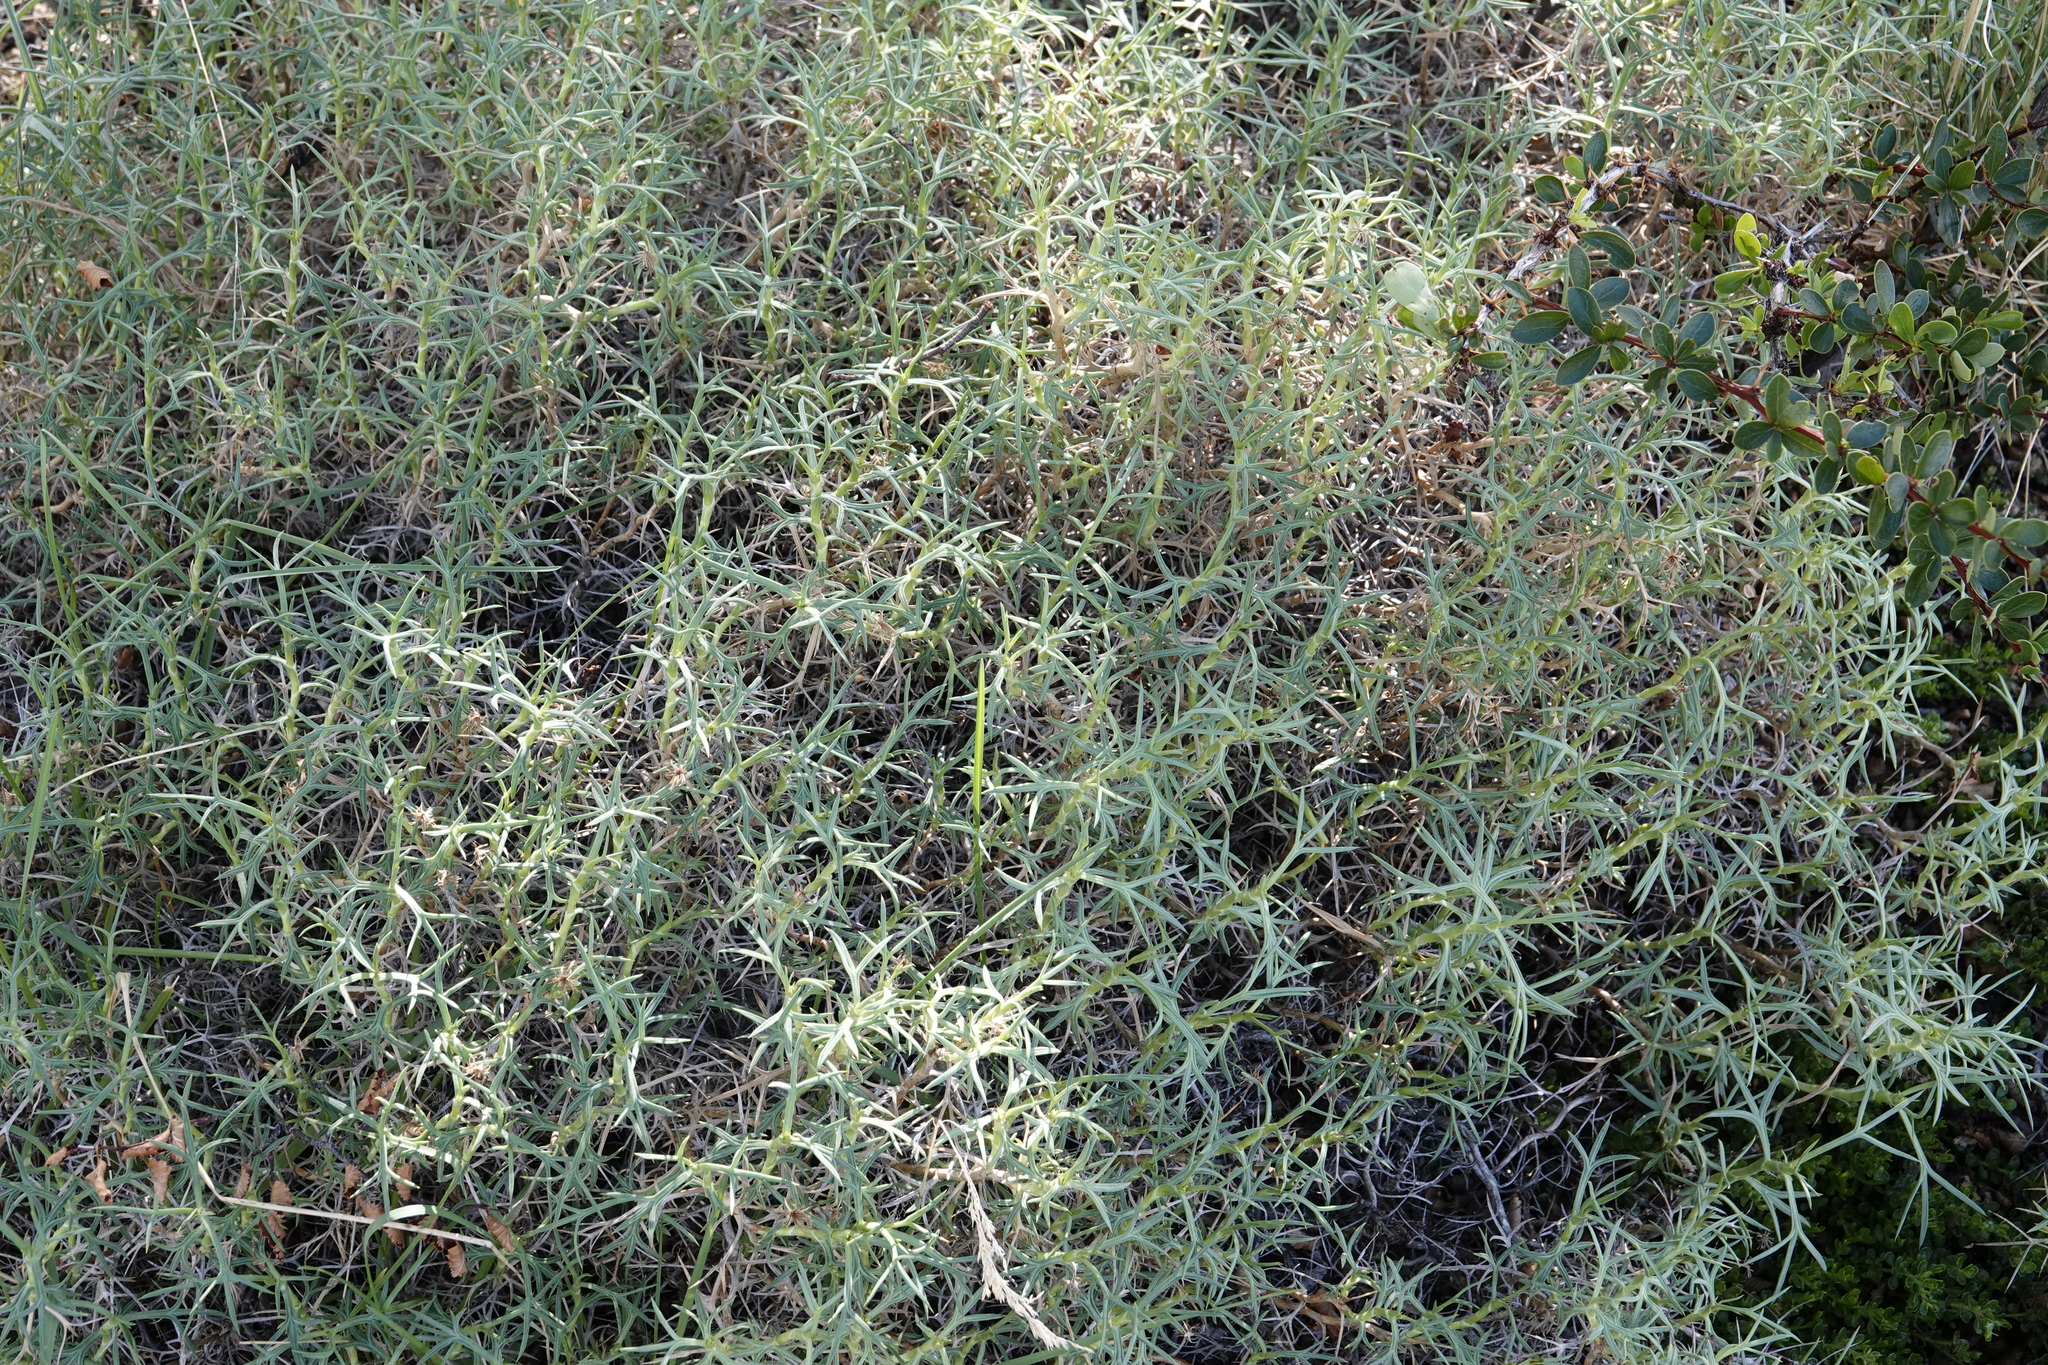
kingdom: Plantae
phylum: Tracheophyta
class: Magnoliopsida
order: Apiales
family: Apiaceae
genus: Azorella
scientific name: Azorella prolifera
